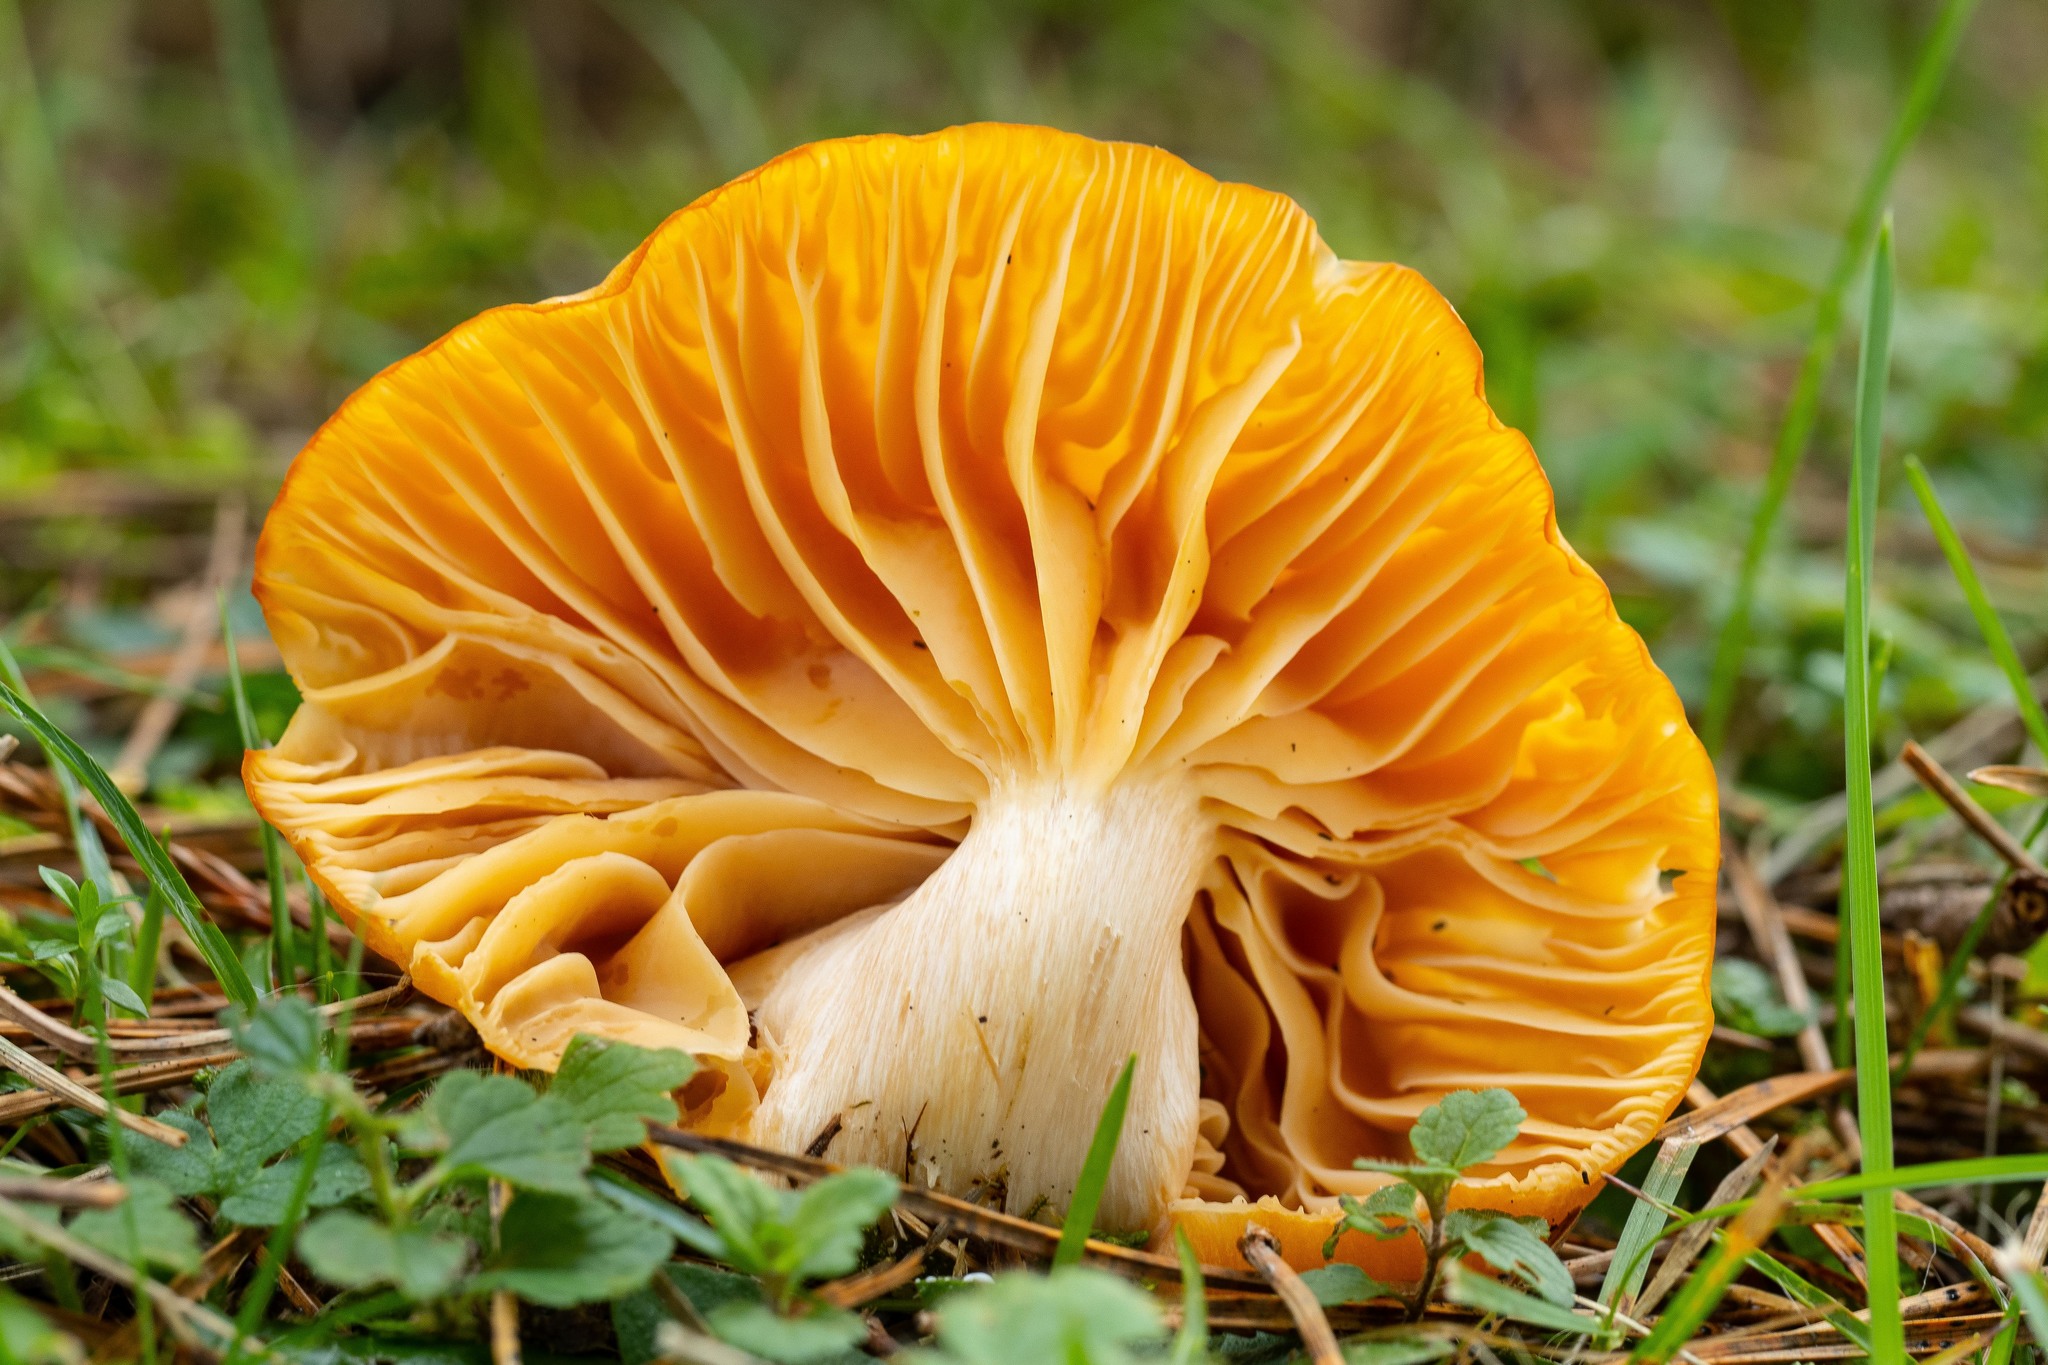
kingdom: Fungi
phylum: Basidiomycota
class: Agaricomycetes
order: Agaricales
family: Hygrophoraceae
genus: Cuphophyllus
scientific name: Cuphophyllus pratensis
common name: Meadow waxcap
